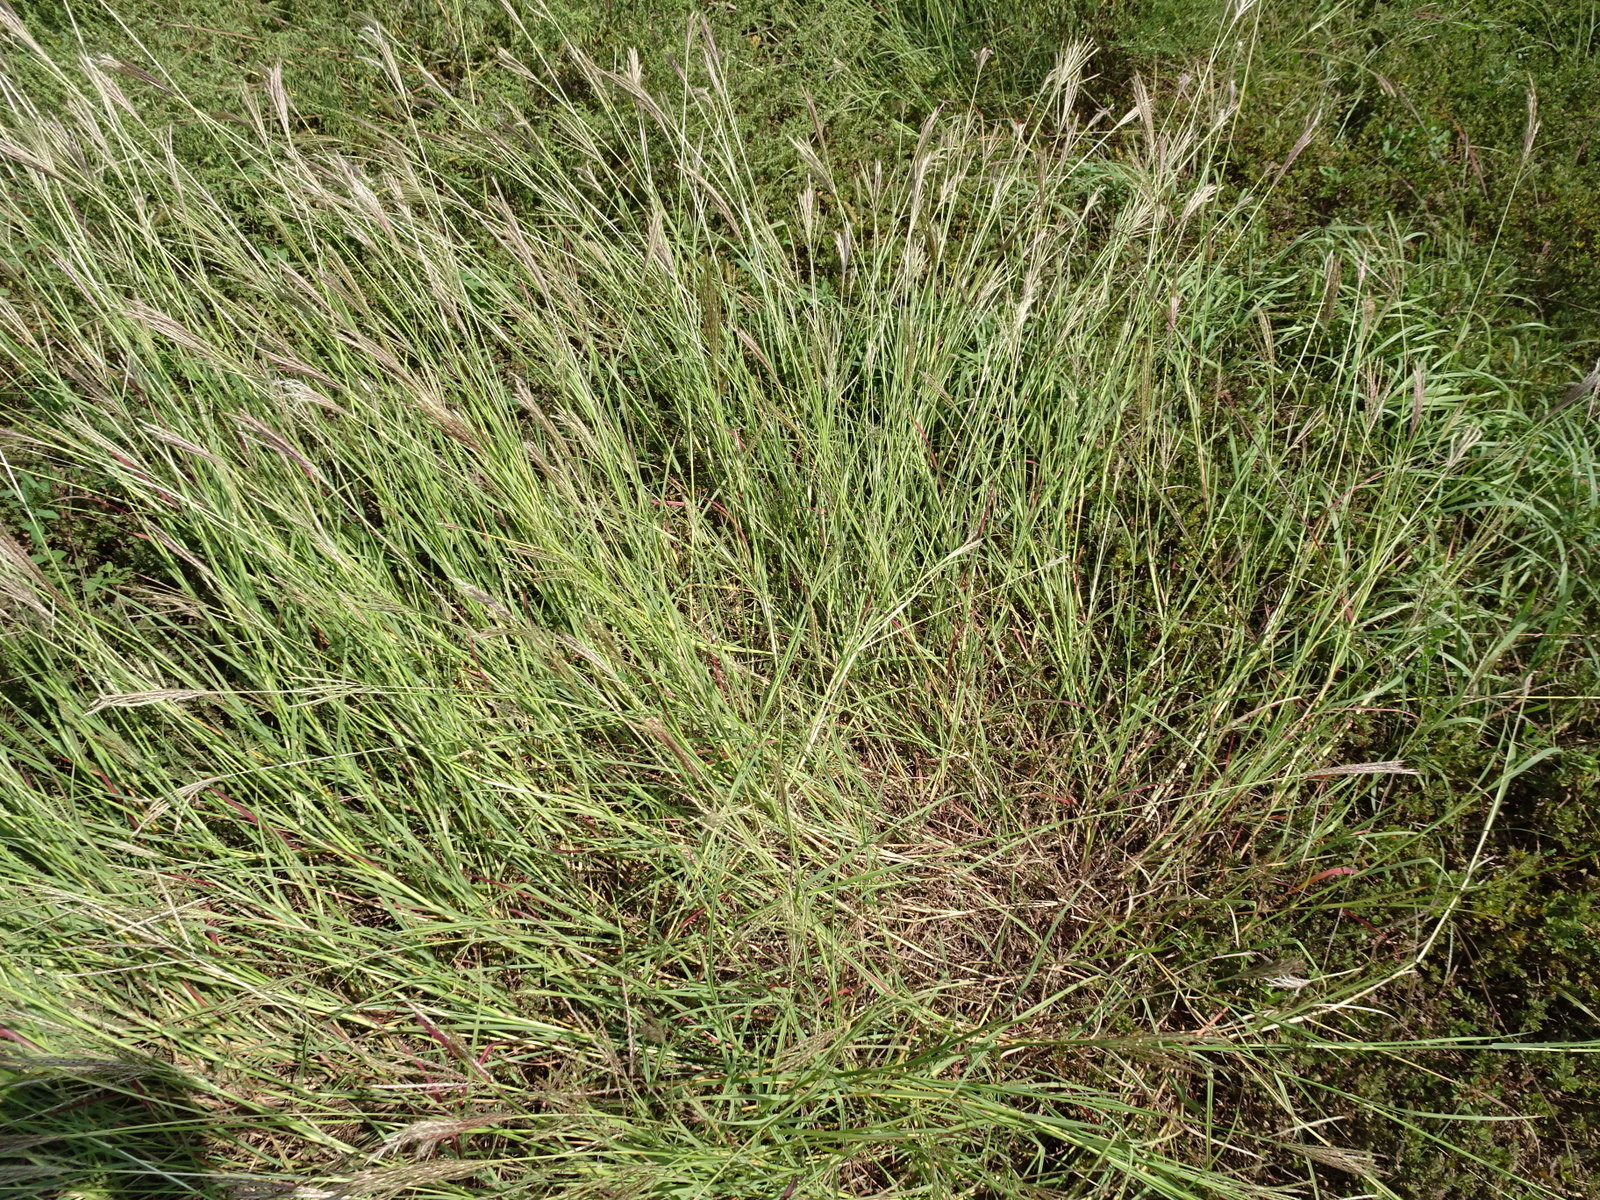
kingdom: Plantae
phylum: Tracheophyta
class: Liliopsida
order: Poales
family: Poaceae
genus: Bothriochloa
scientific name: Bothriochloa ischaemum
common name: Yellow bluestem
